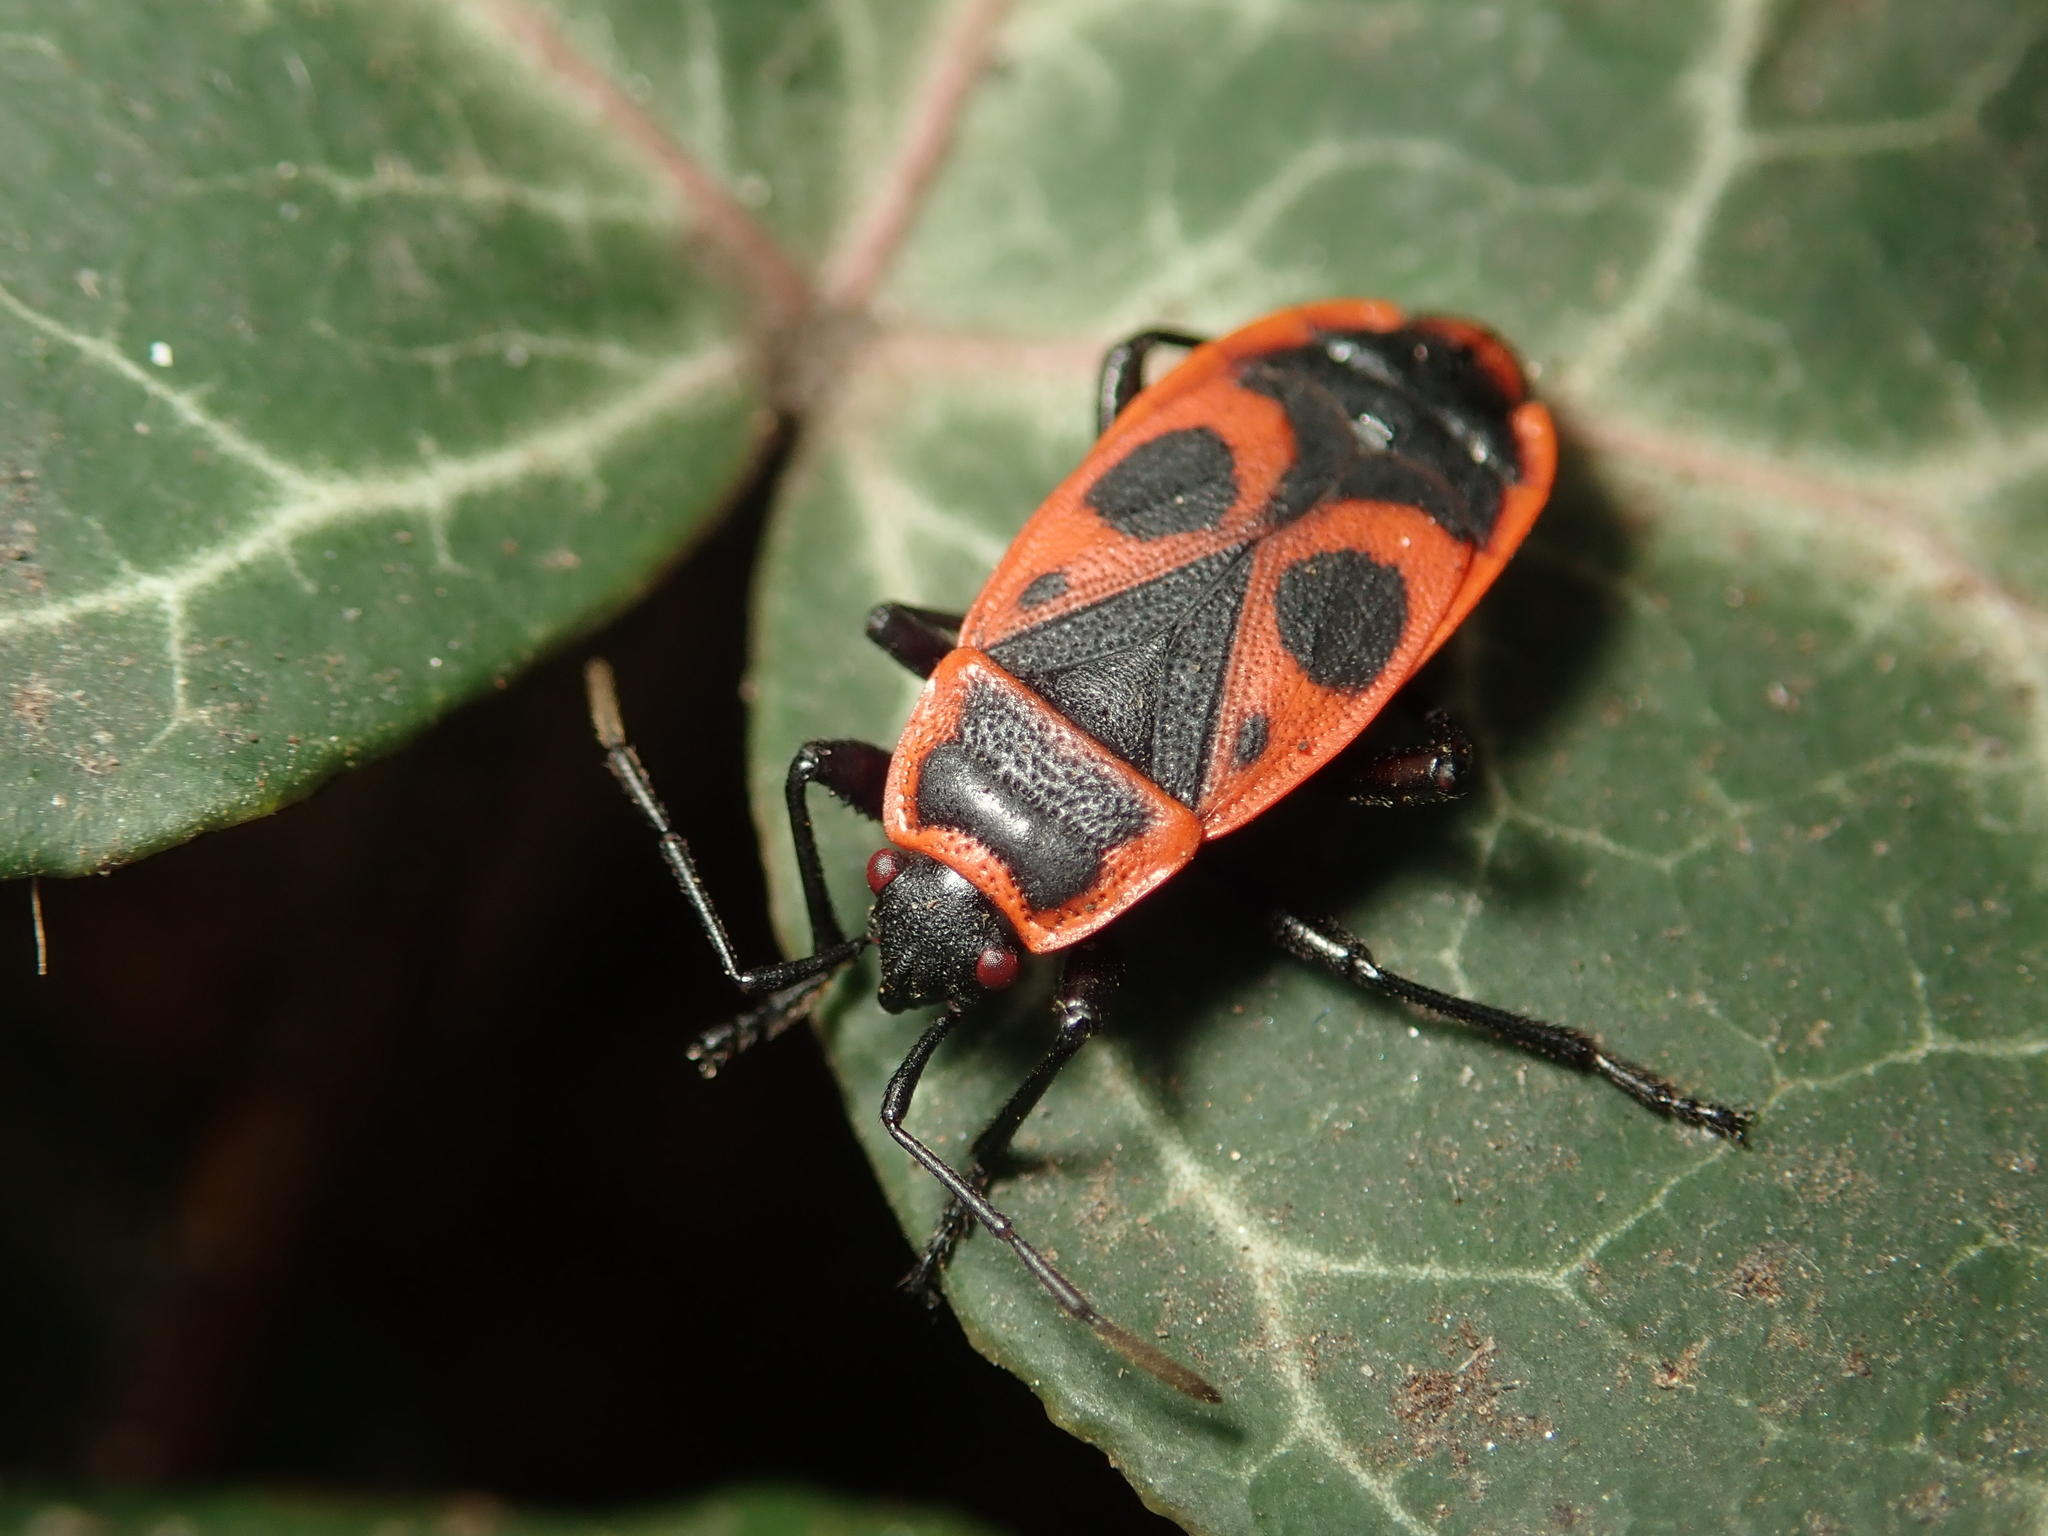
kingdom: Animalia
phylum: Arthropoda
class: Insecta
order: Hemiptera
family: Pyrrhocoridae
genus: Pyrrhocoris
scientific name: Pyrrhocoris apterus
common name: Firebug
